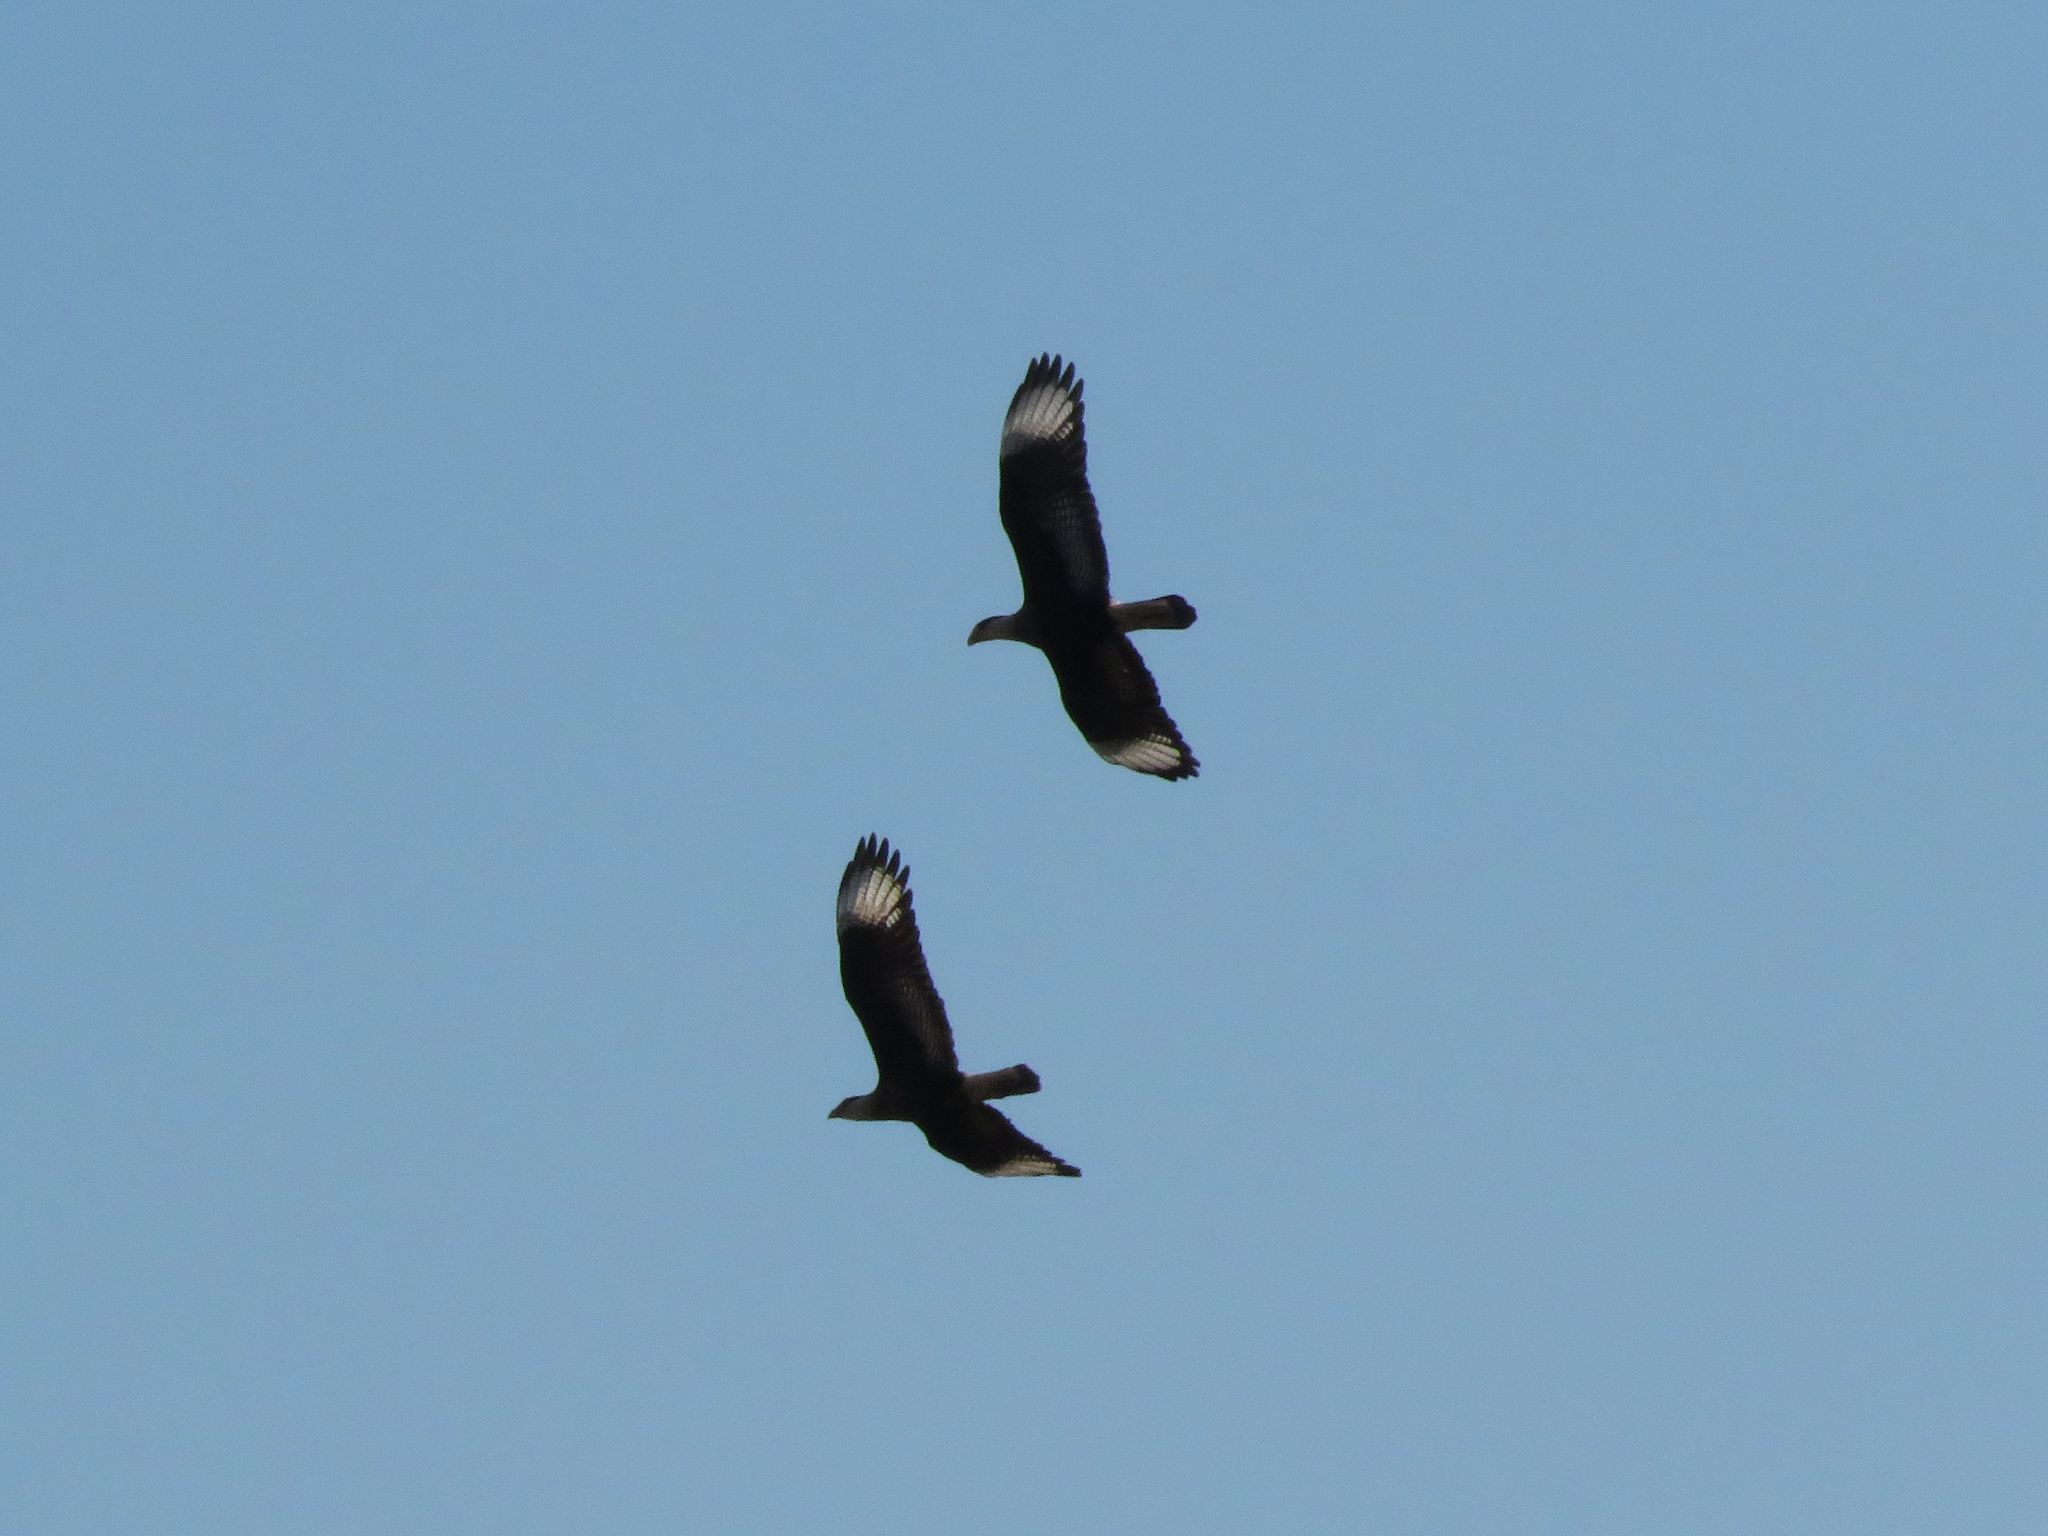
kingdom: Animalia
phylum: Chordata
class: Aves
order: Falconiformes
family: Falconidae
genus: Caracara
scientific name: Caracara plancus
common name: Southern caracara
